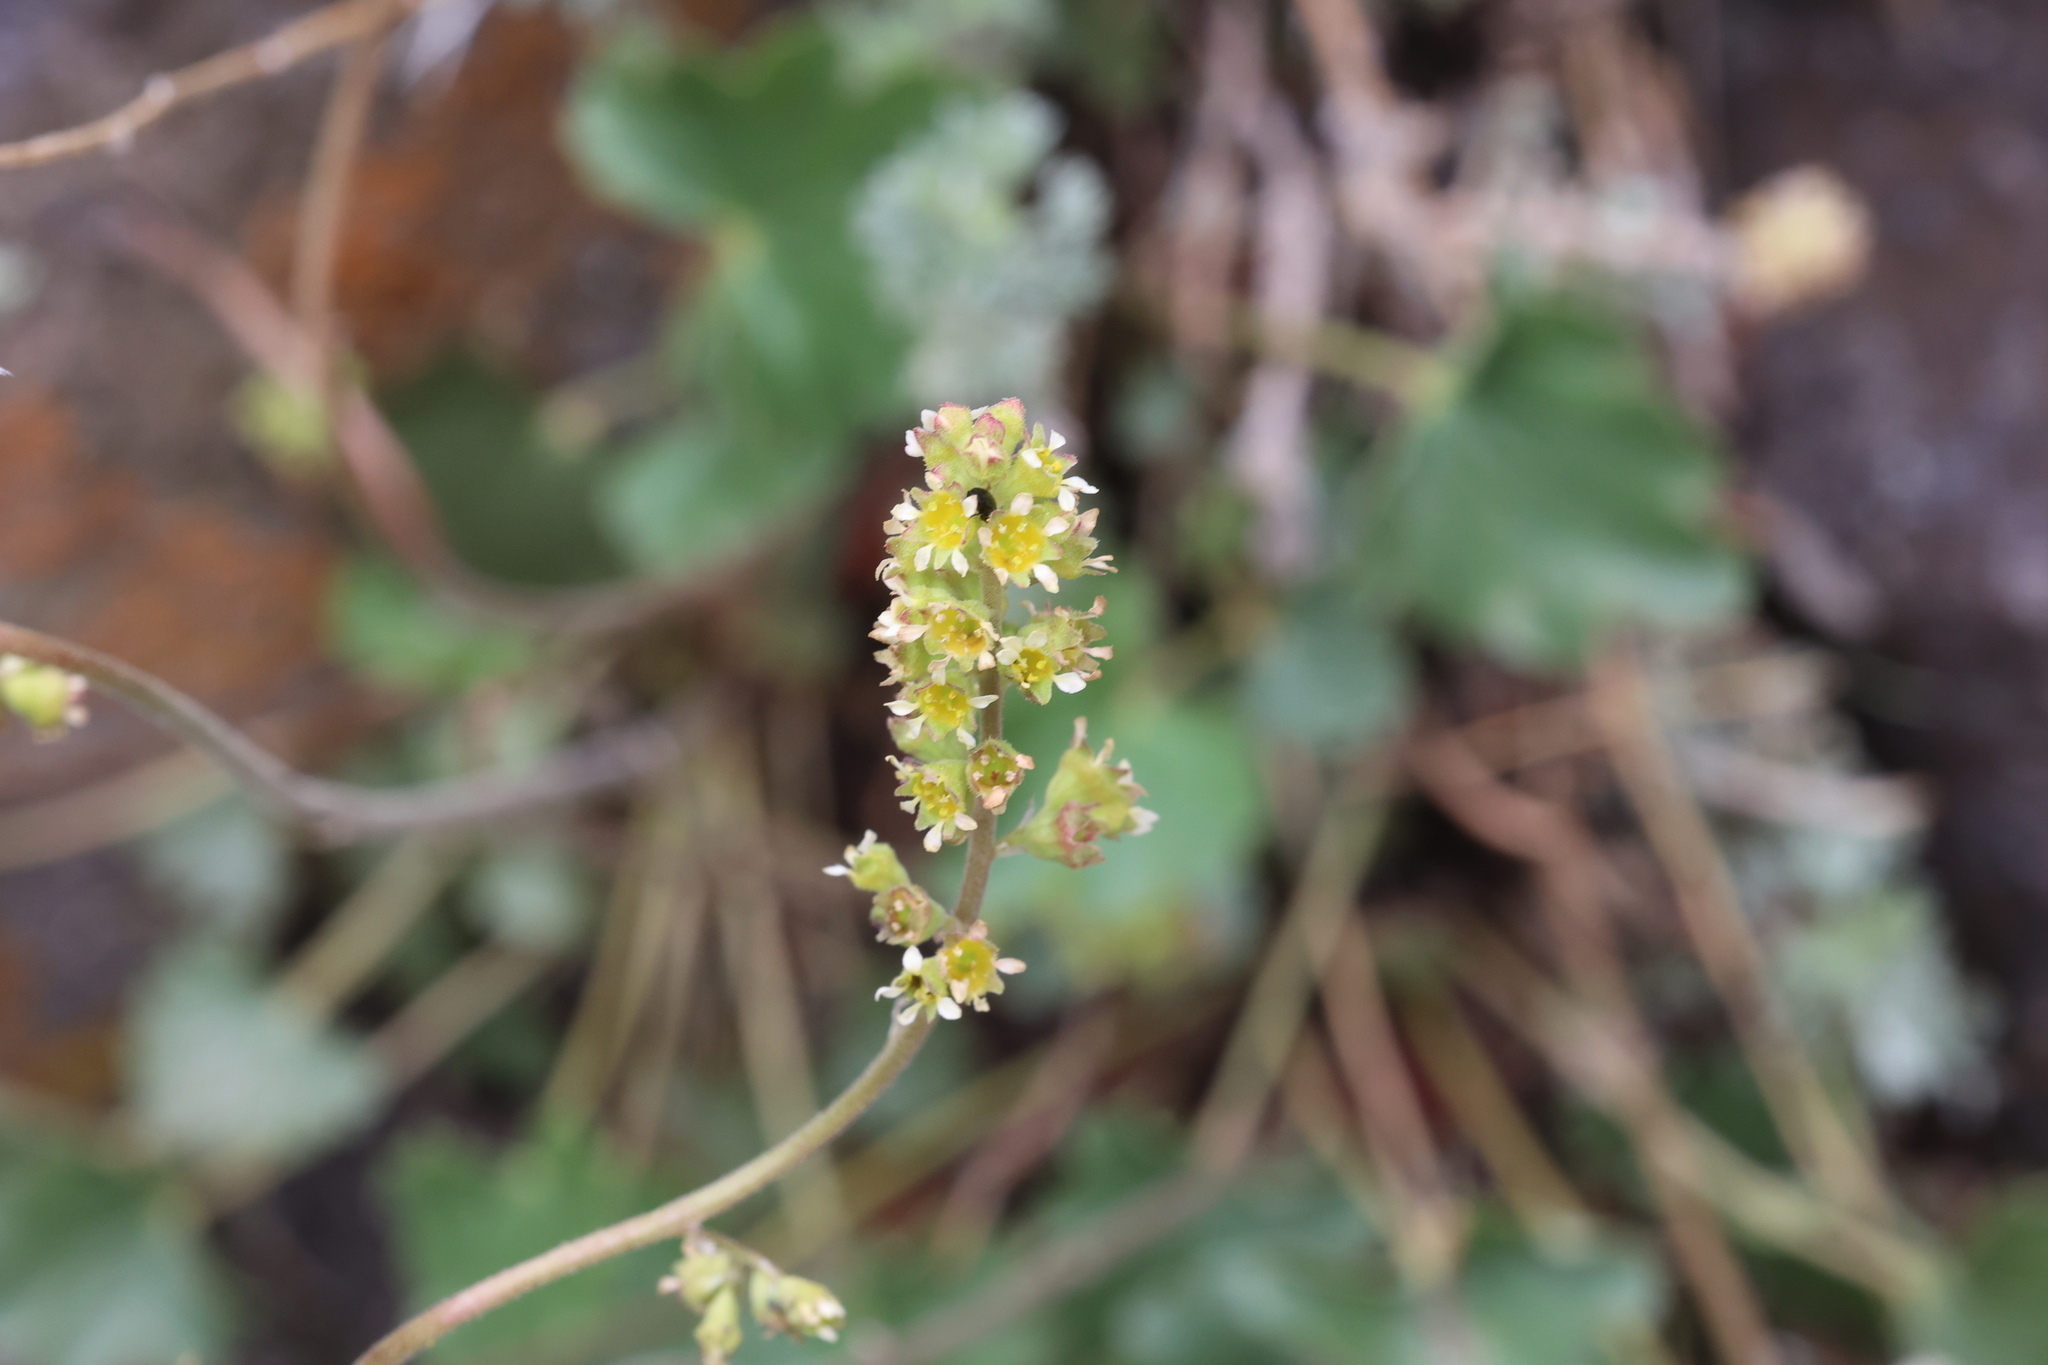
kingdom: Plantae
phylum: Tracheophyta
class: Magnoliopsida
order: Saxifragales
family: Saxifragaceae
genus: Heuchera
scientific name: Heuchera parvifolia
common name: Common alumroot
